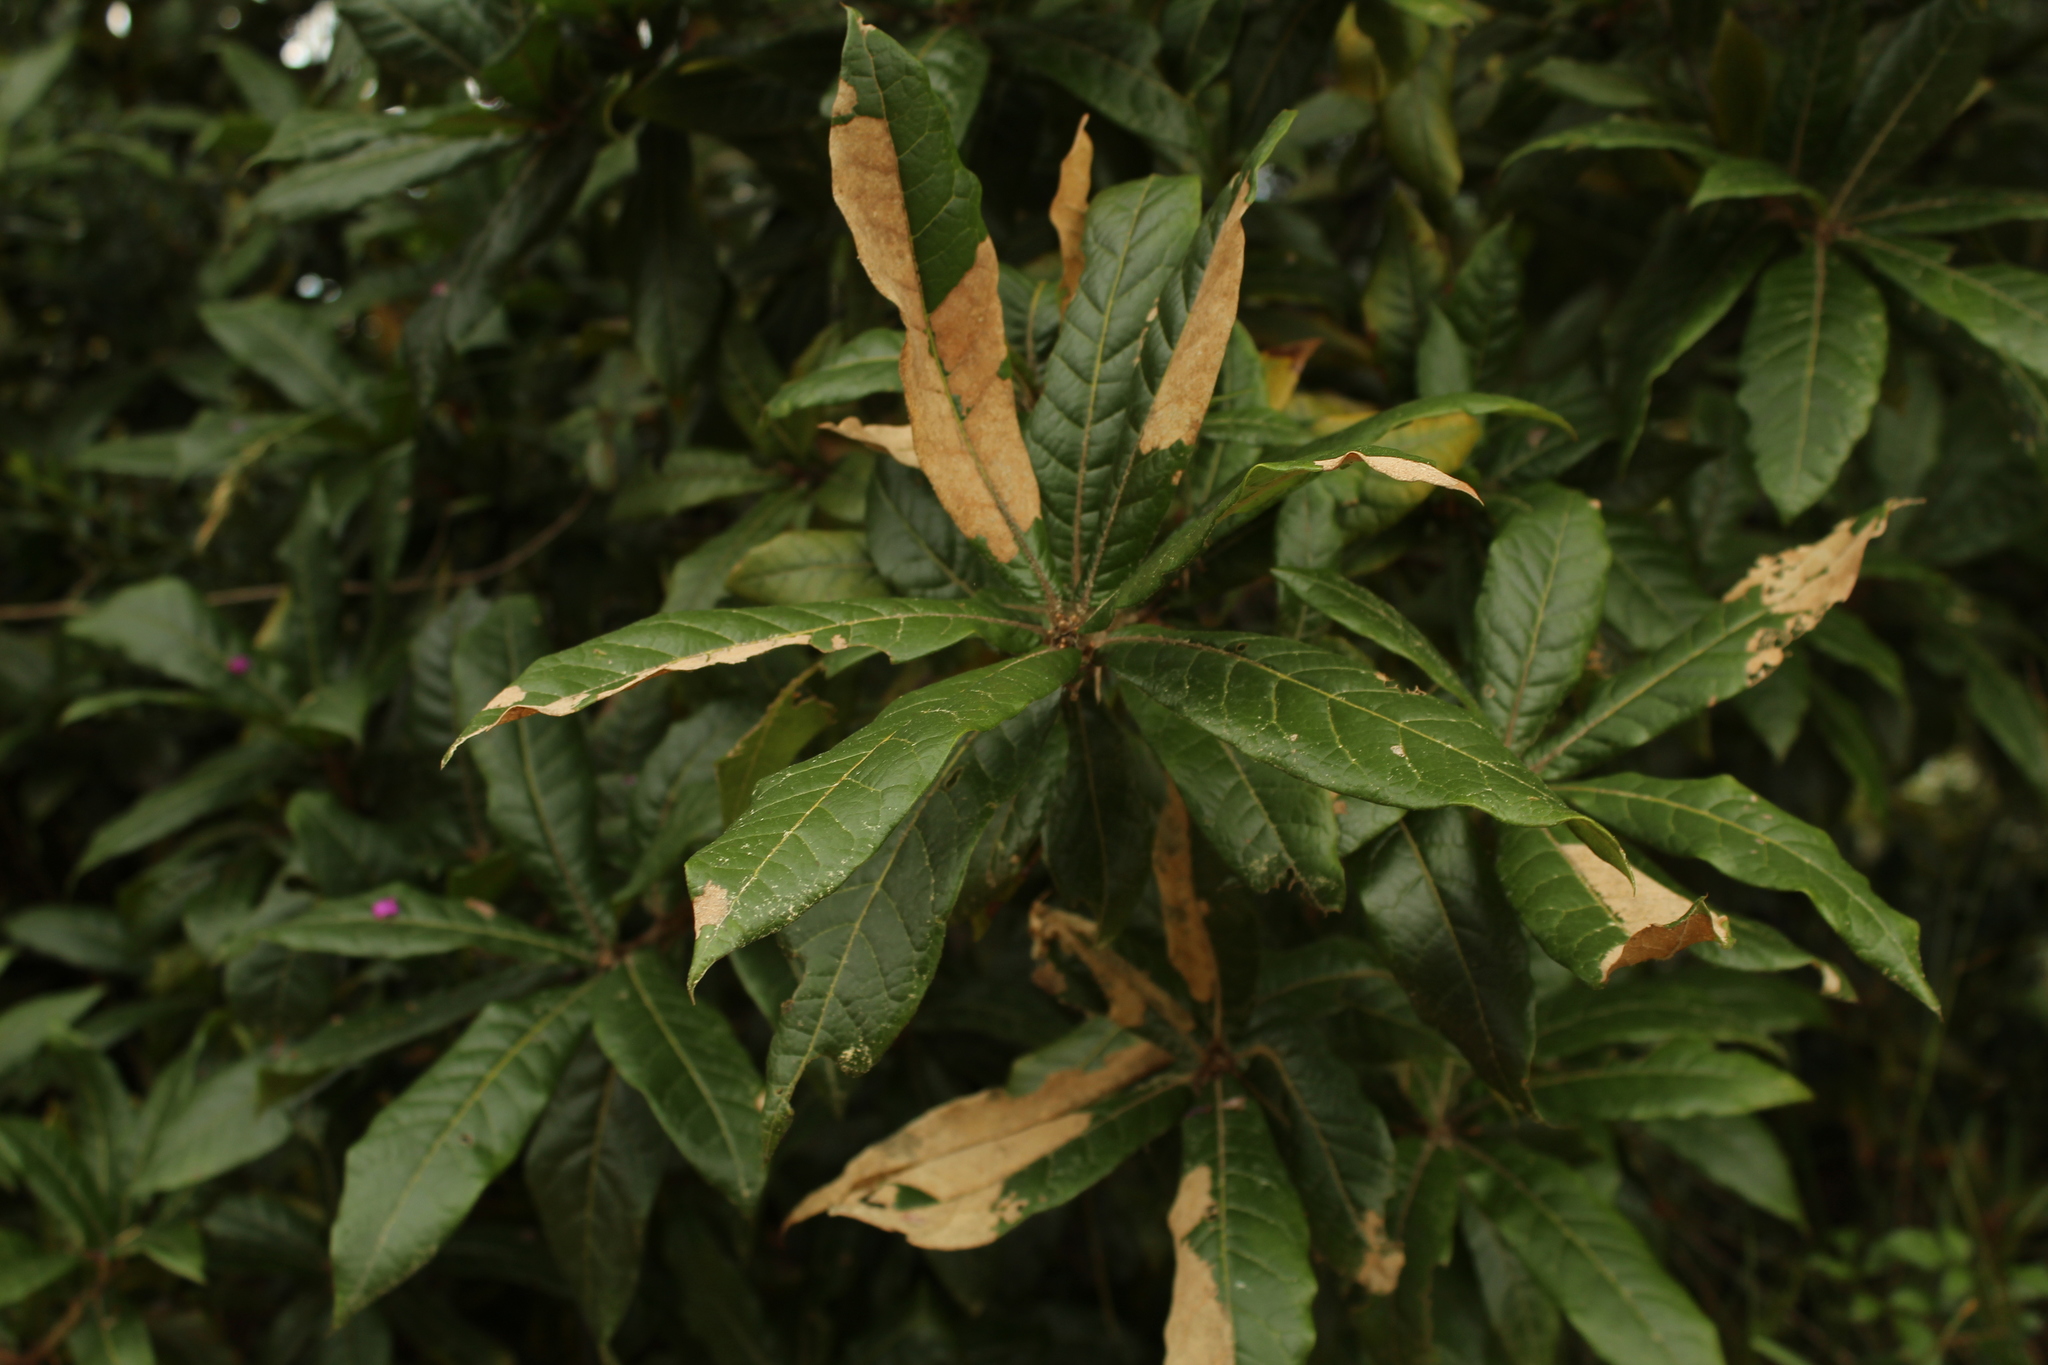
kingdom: Plantae
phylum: Tracheophyta
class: Magnoliopsida
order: Fagales
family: Fagaceae
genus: Quercus
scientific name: Quercus humboldtii
